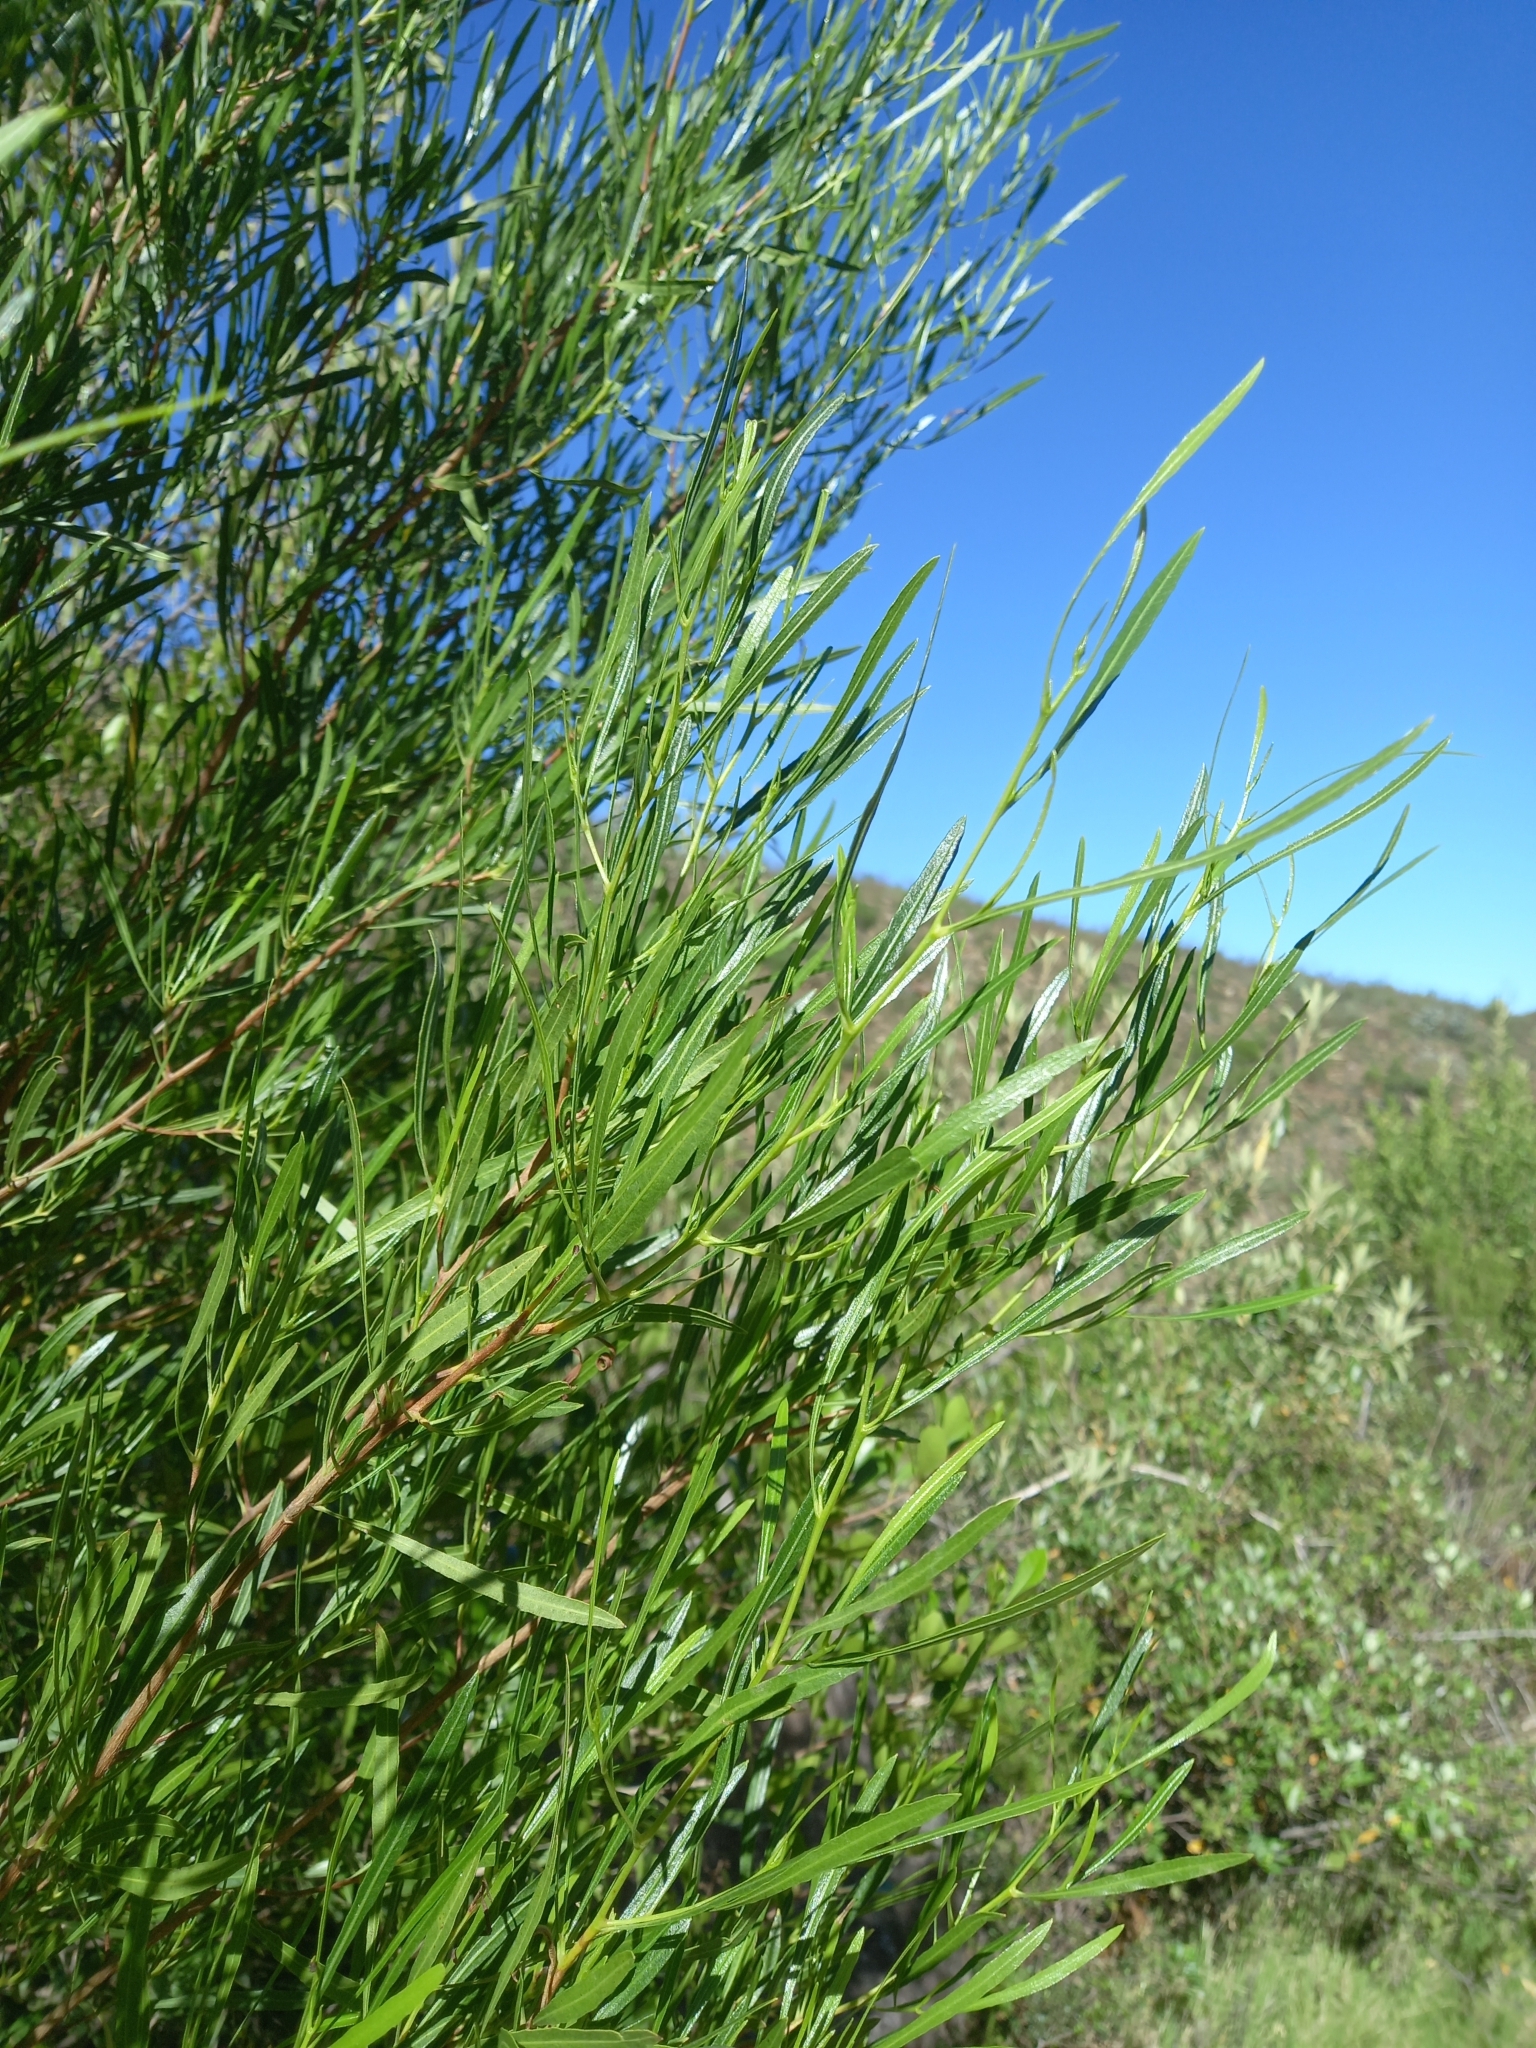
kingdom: Plantae
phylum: Tracheophyta
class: Magnoliopsida
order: Sapindales
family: Sapindaceae
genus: Dodonaea
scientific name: Dodonaea viscosa
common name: Hopbush
